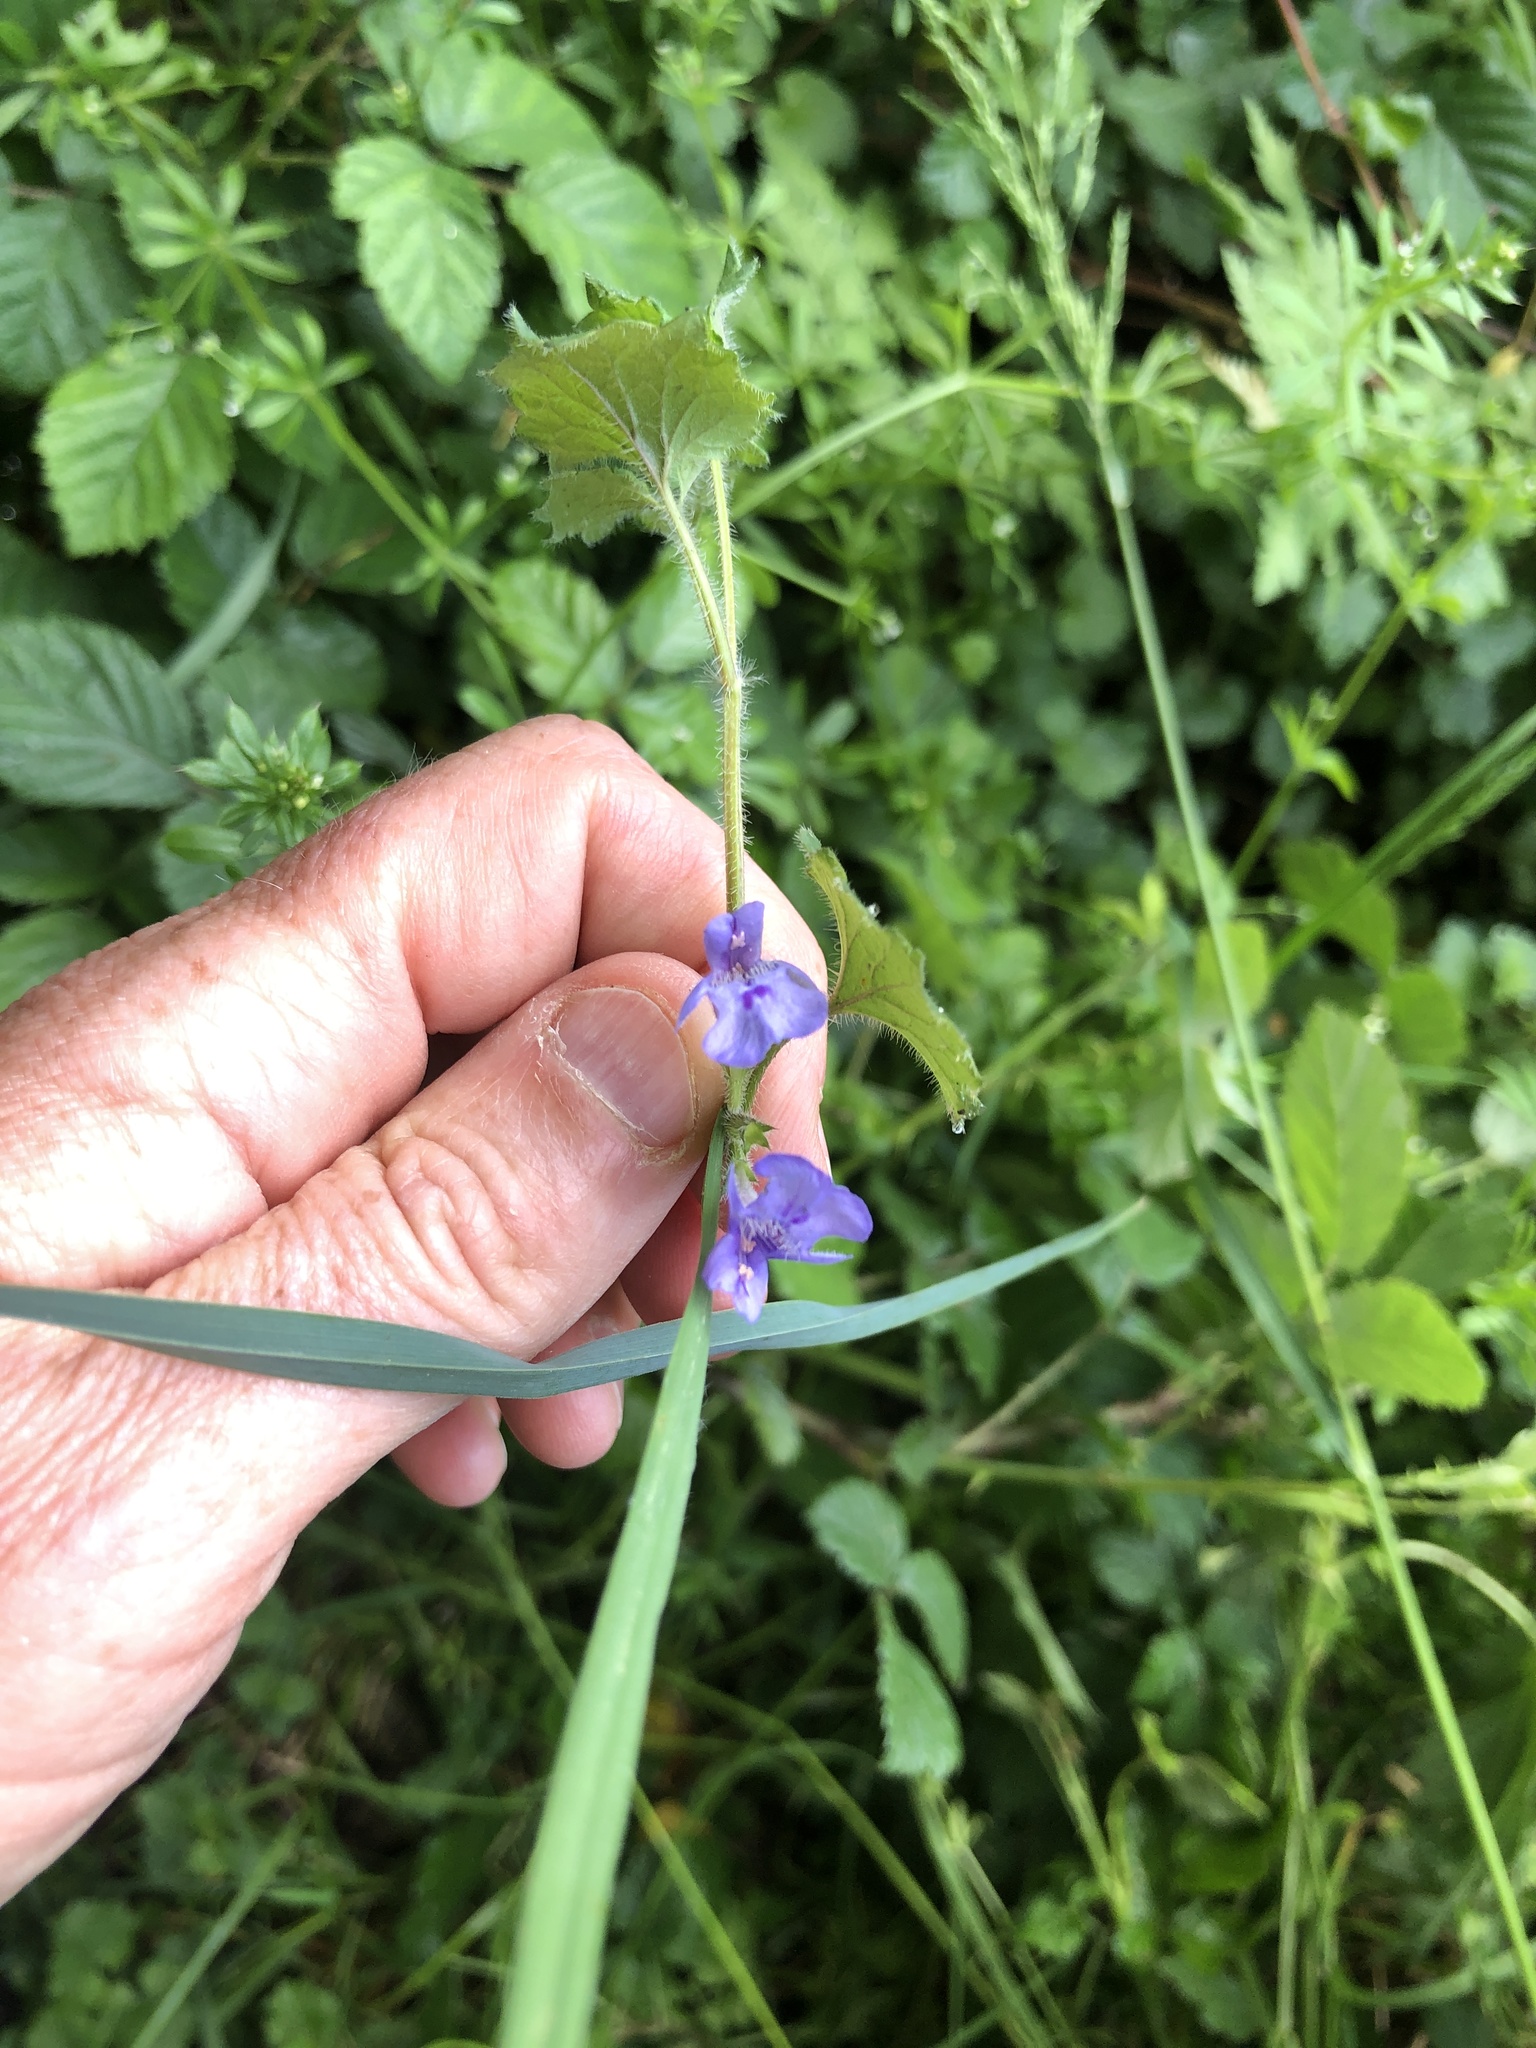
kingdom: Plantae
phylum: Tracheophyta
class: Magnoliopsida
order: Lamiales
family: Lamiaceae
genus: Glechoma
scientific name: Glechoma hederacea
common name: Ground ivy
